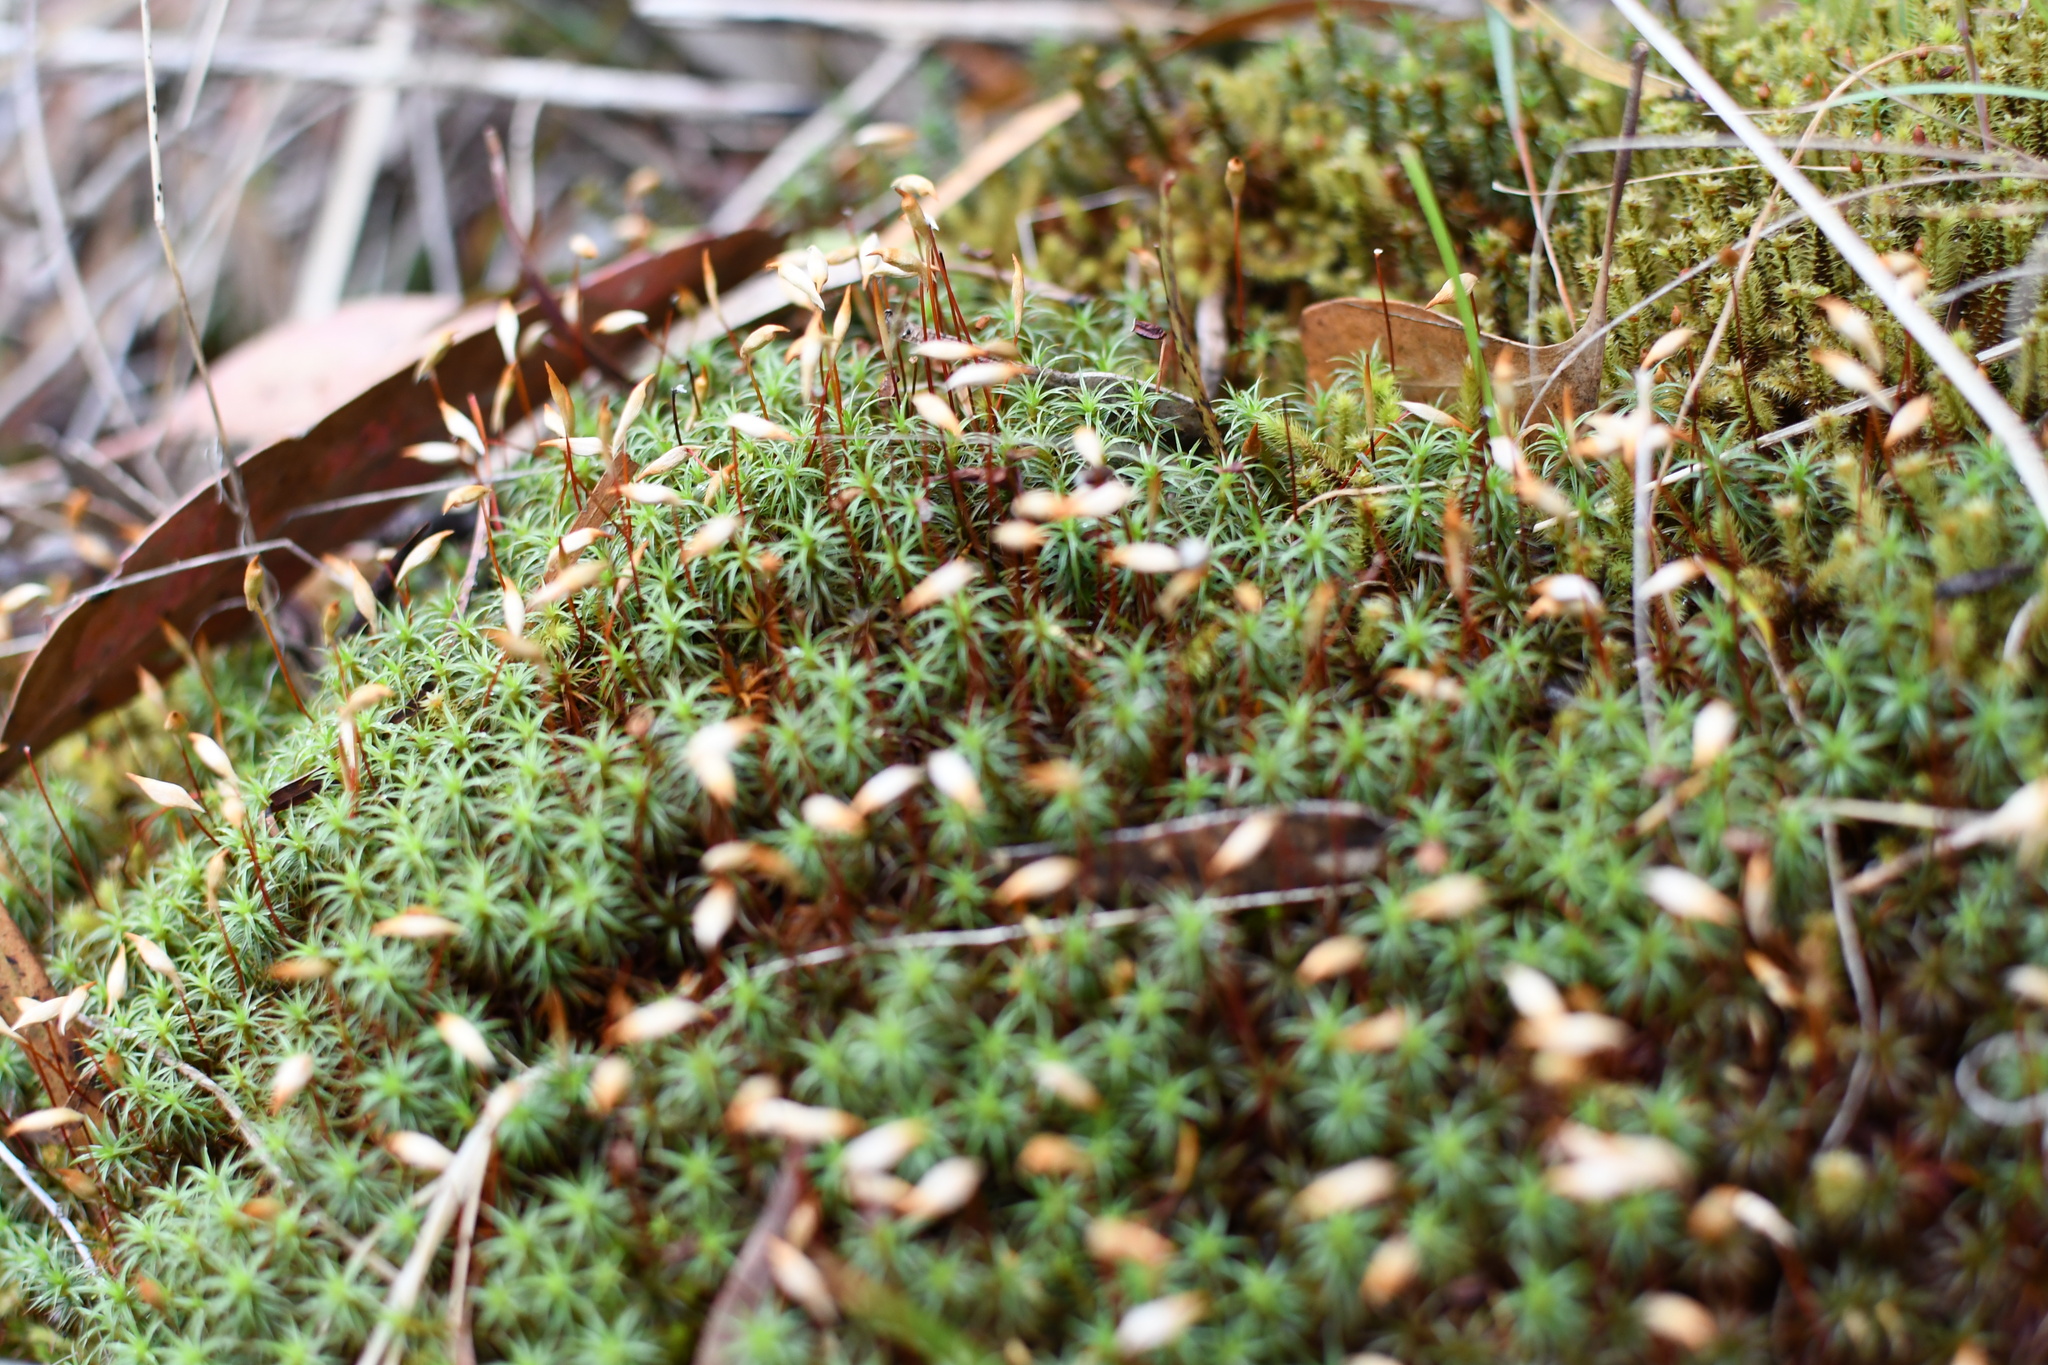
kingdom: Plantae
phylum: Bryophyta
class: Polytrichopsida
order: Polytrichales
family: Polytrichaceae
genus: Polytrichum
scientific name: Polytrichum juniperinum
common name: Juniper haircap moss
